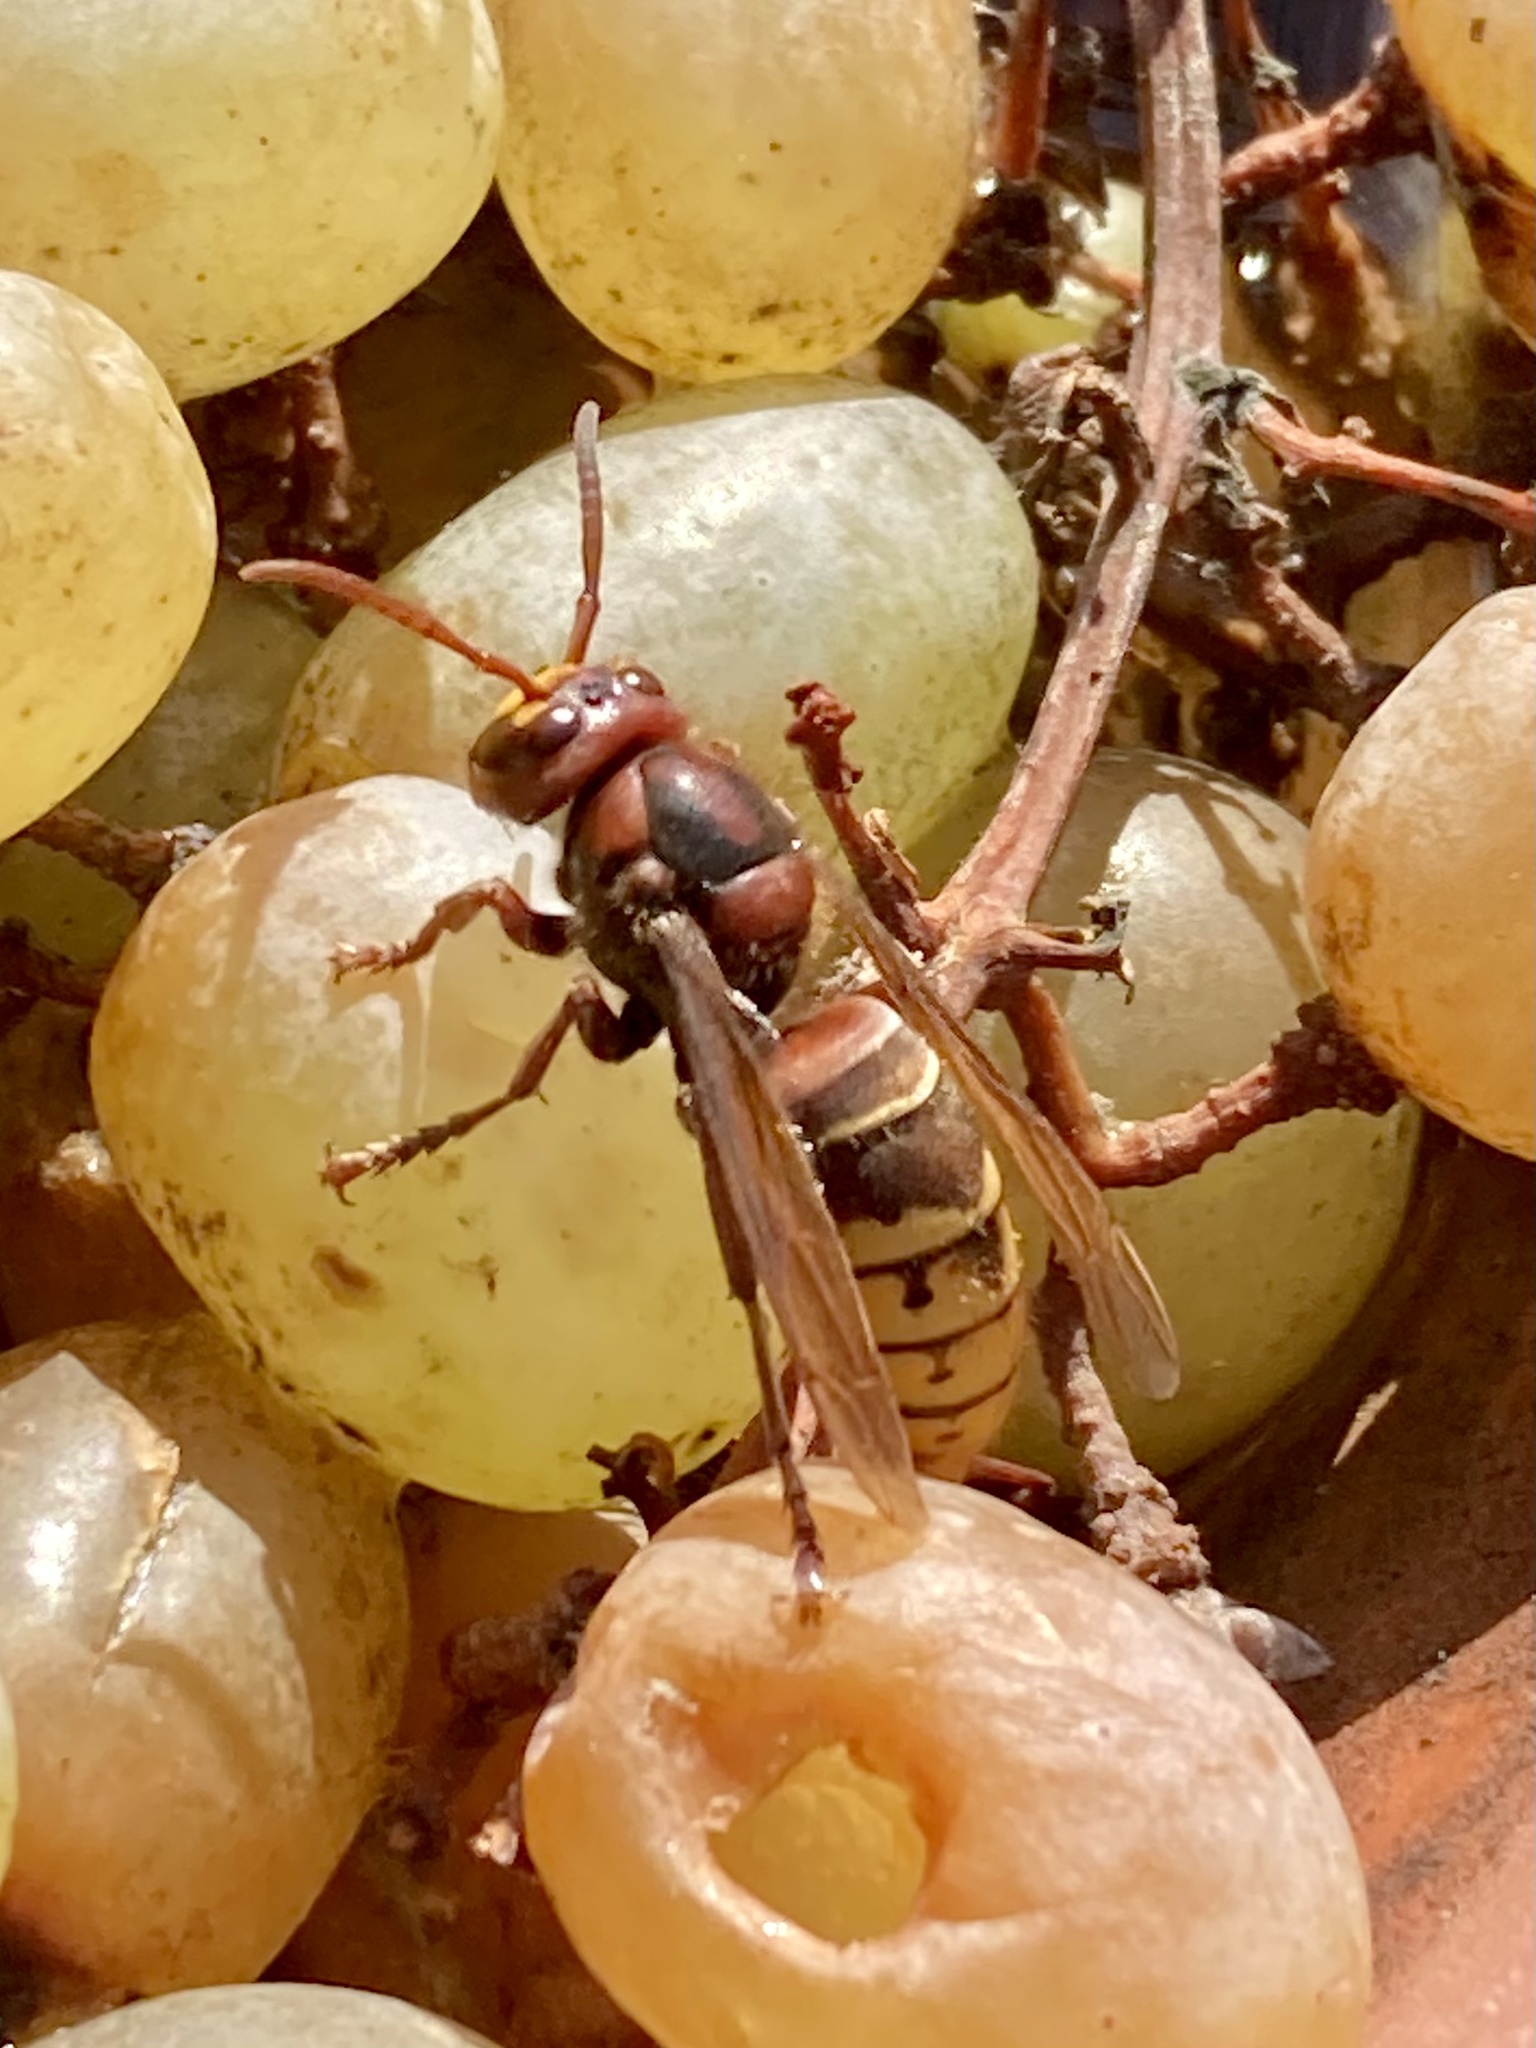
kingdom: Animalia
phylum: Arthropoda
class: Insecta
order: Hymenoptera
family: Vespidae
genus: Vespa
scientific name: Vespa crabro
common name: Hornet
